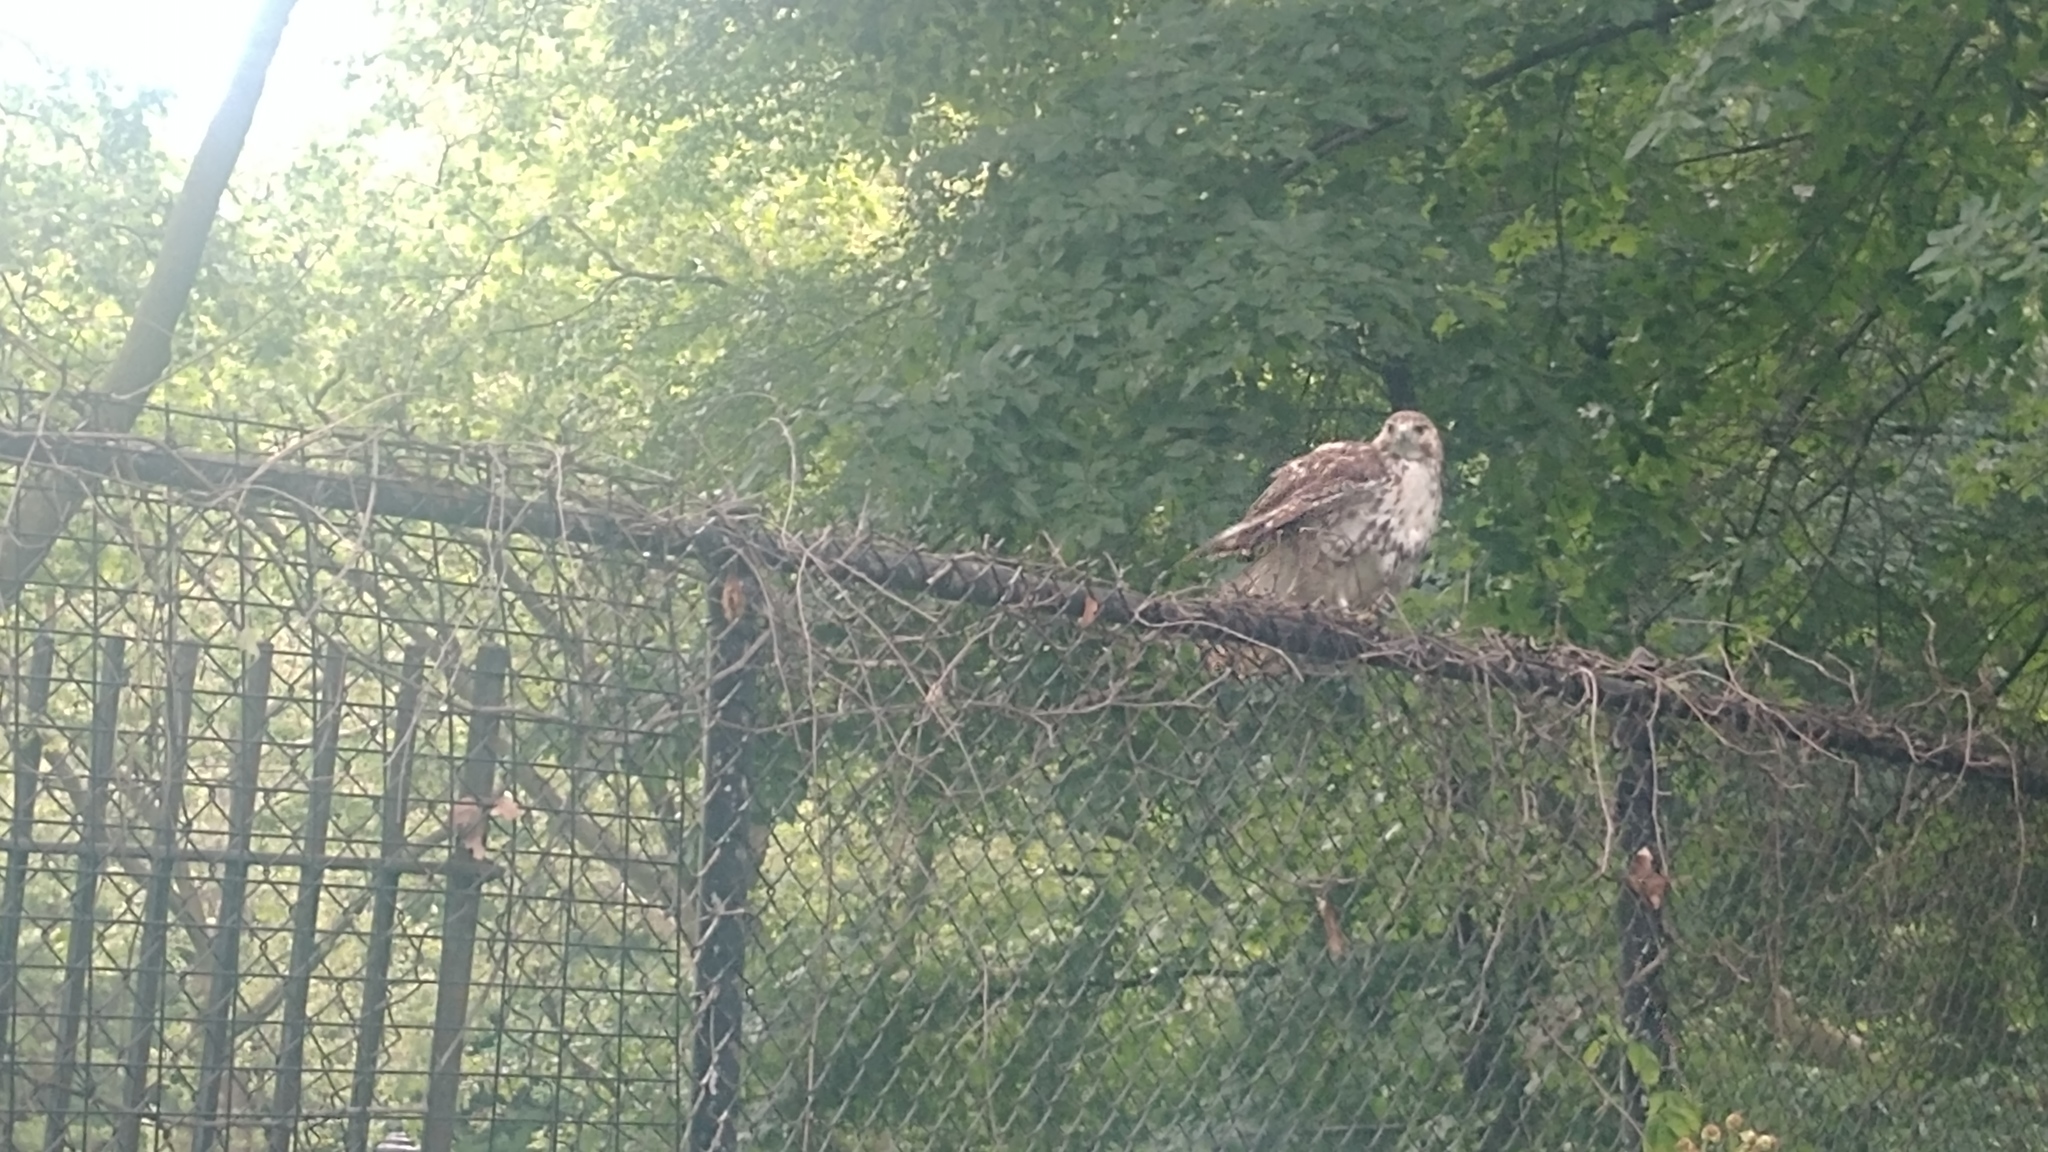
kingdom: Animalia
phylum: Chordata
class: Aves
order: Accipitriformes
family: Accipitridae
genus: Buteo
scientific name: Buteo jamaicensis
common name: Red-tailed hawk
